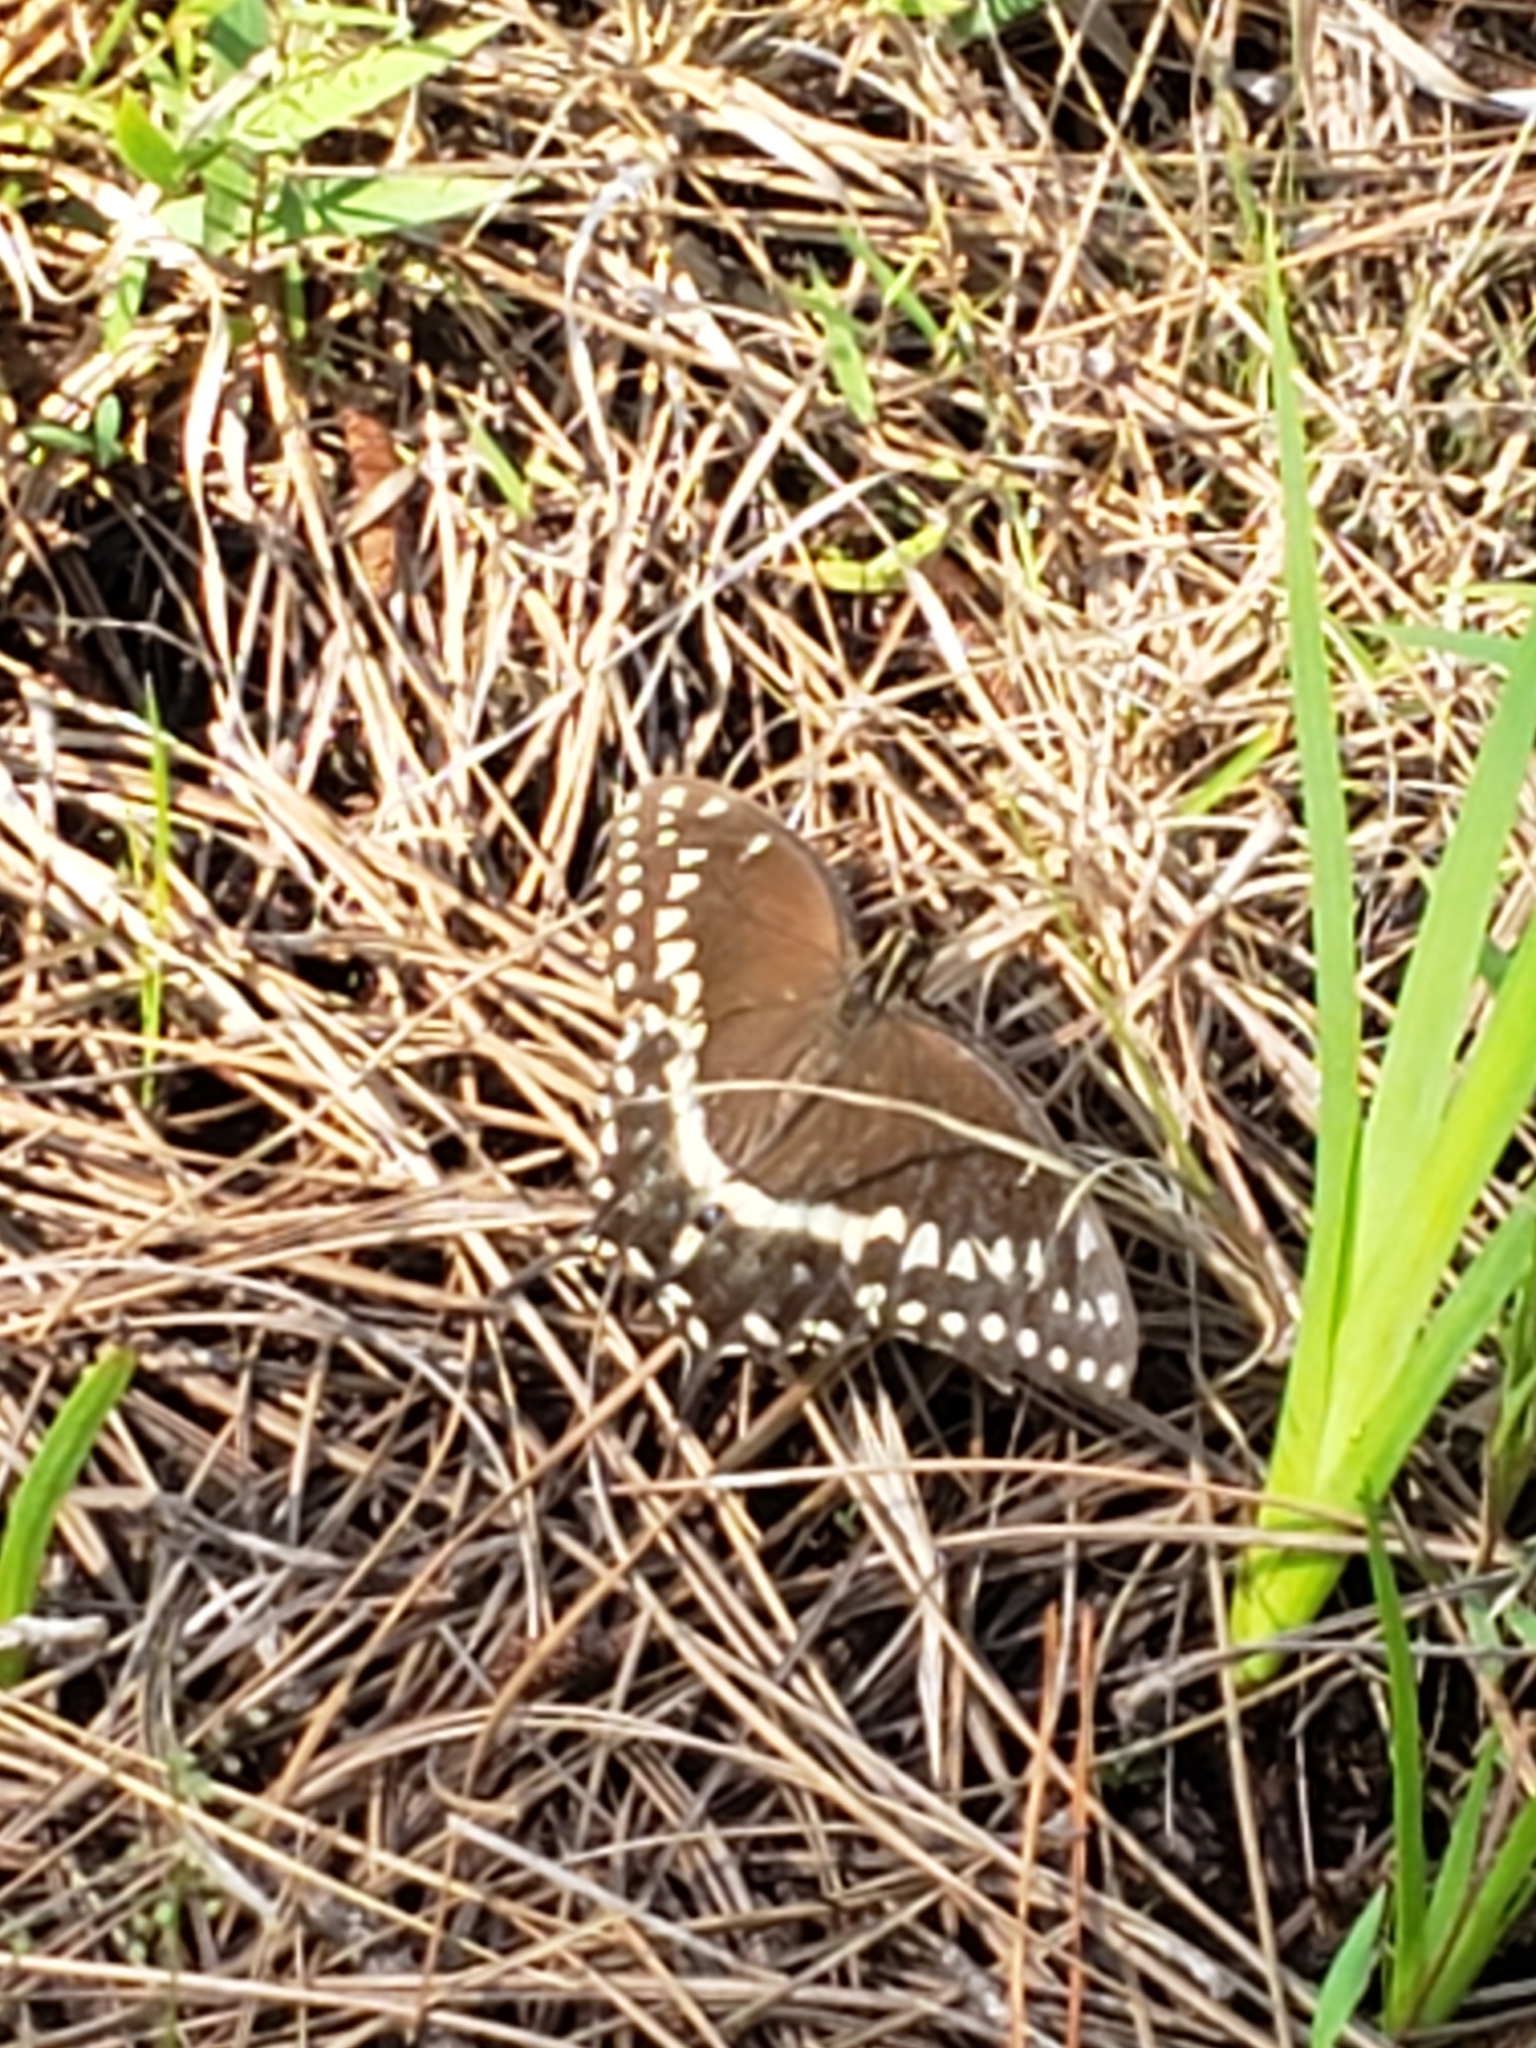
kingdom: Animalia
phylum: Arthropoda
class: Insecta
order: Lepidoptera
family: Papilionidae
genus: Papilio
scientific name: Papilio palamedes
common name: Palamedes swallowtail
